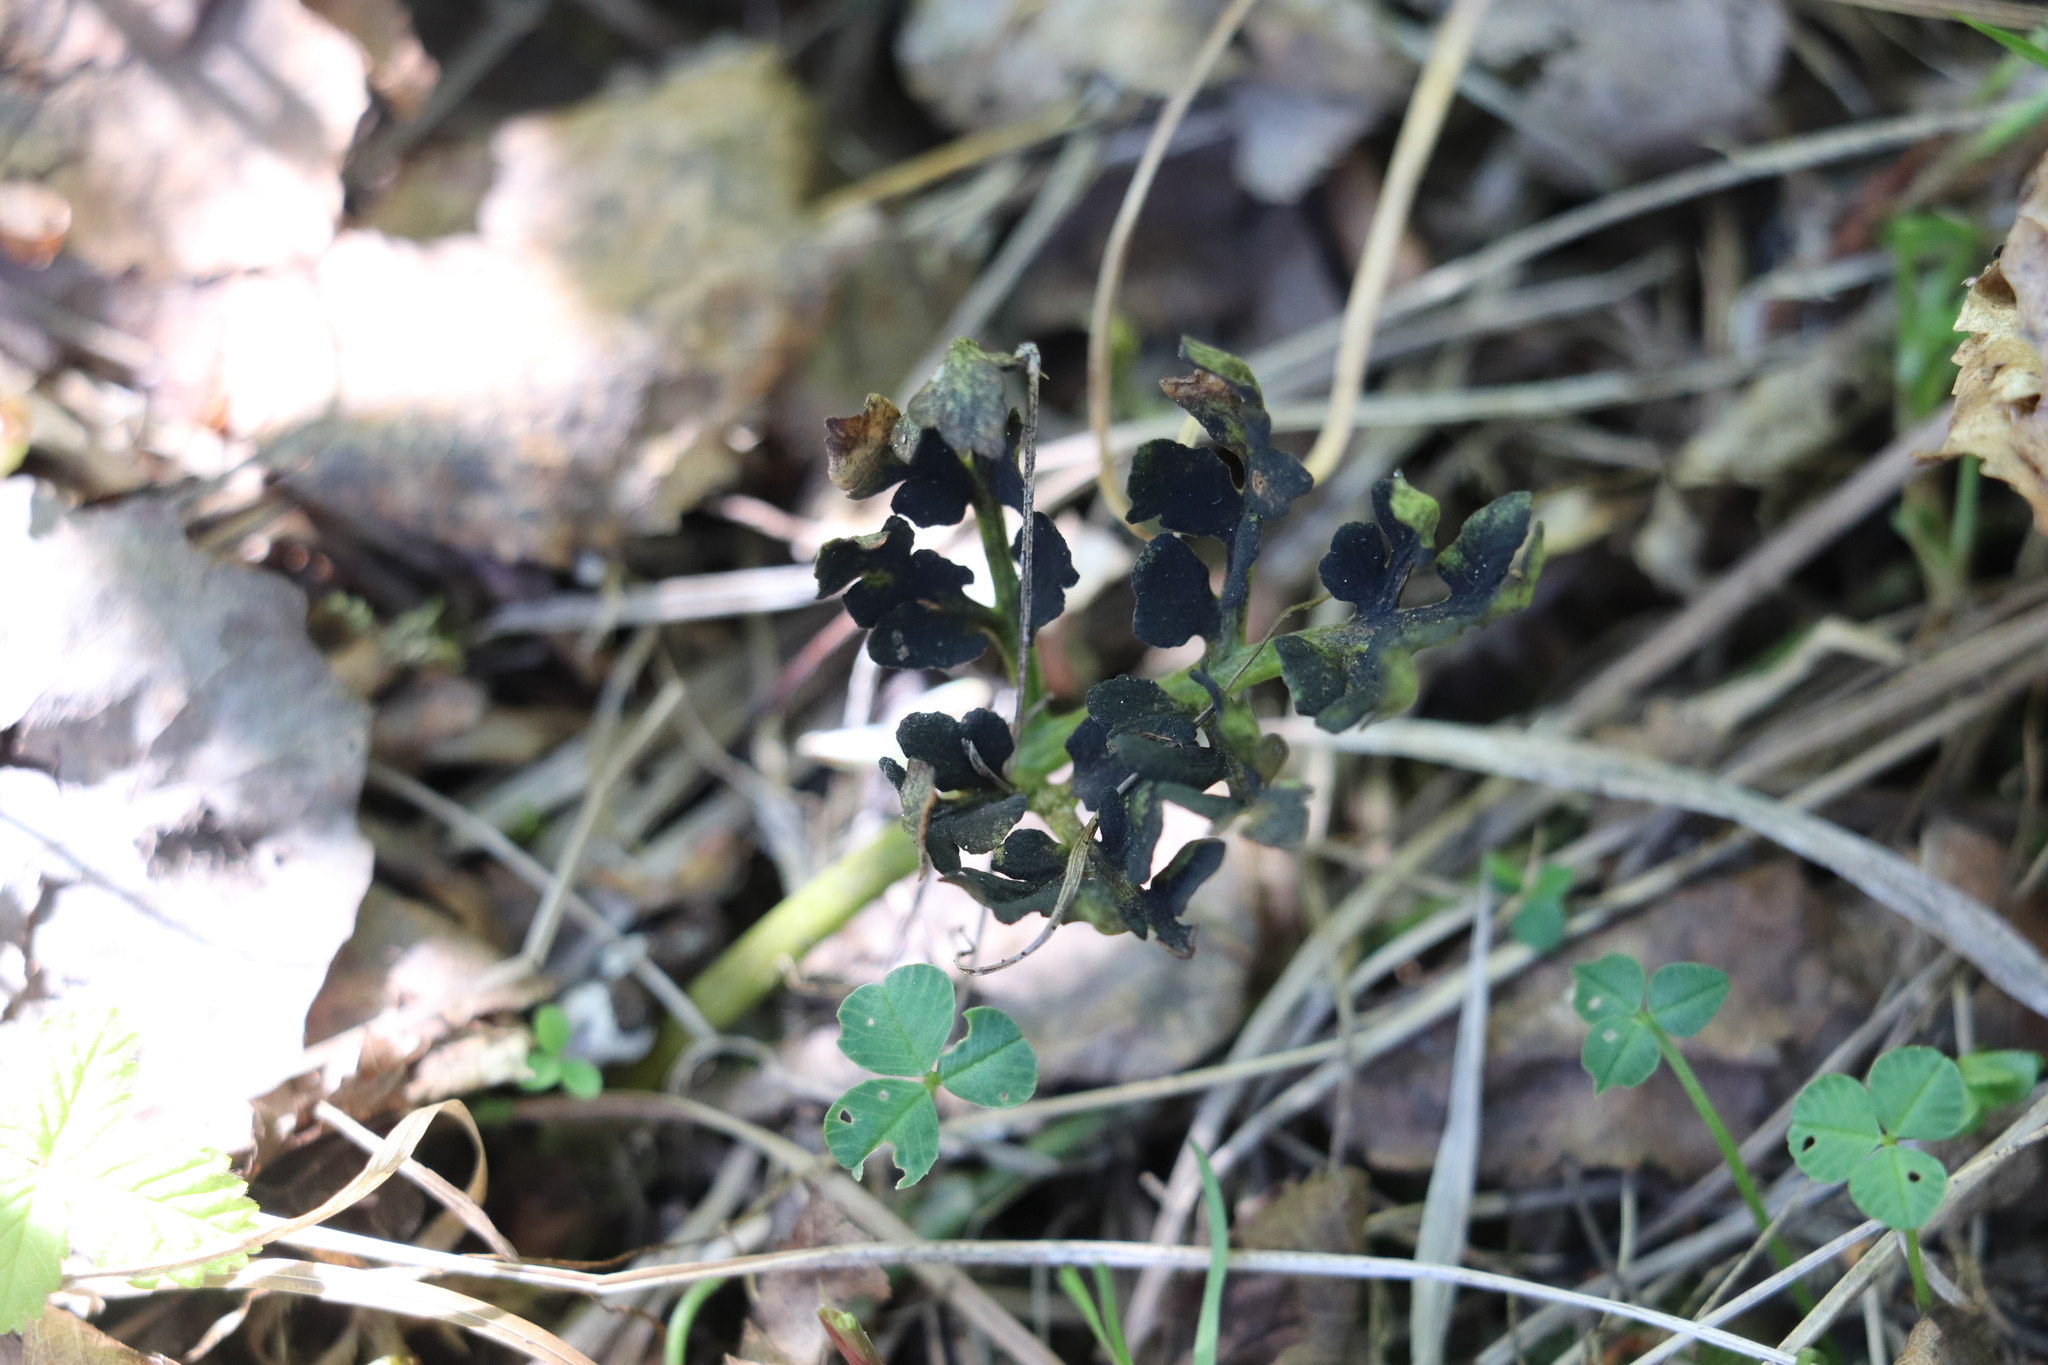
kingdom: Plantae
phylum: Tracheophyta
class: Polypodiopsida
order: Ophioglossales
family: Ophioglossaceae
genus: Sceptridium
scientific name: Sceptridium multifidum
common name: Leathery grape fern
